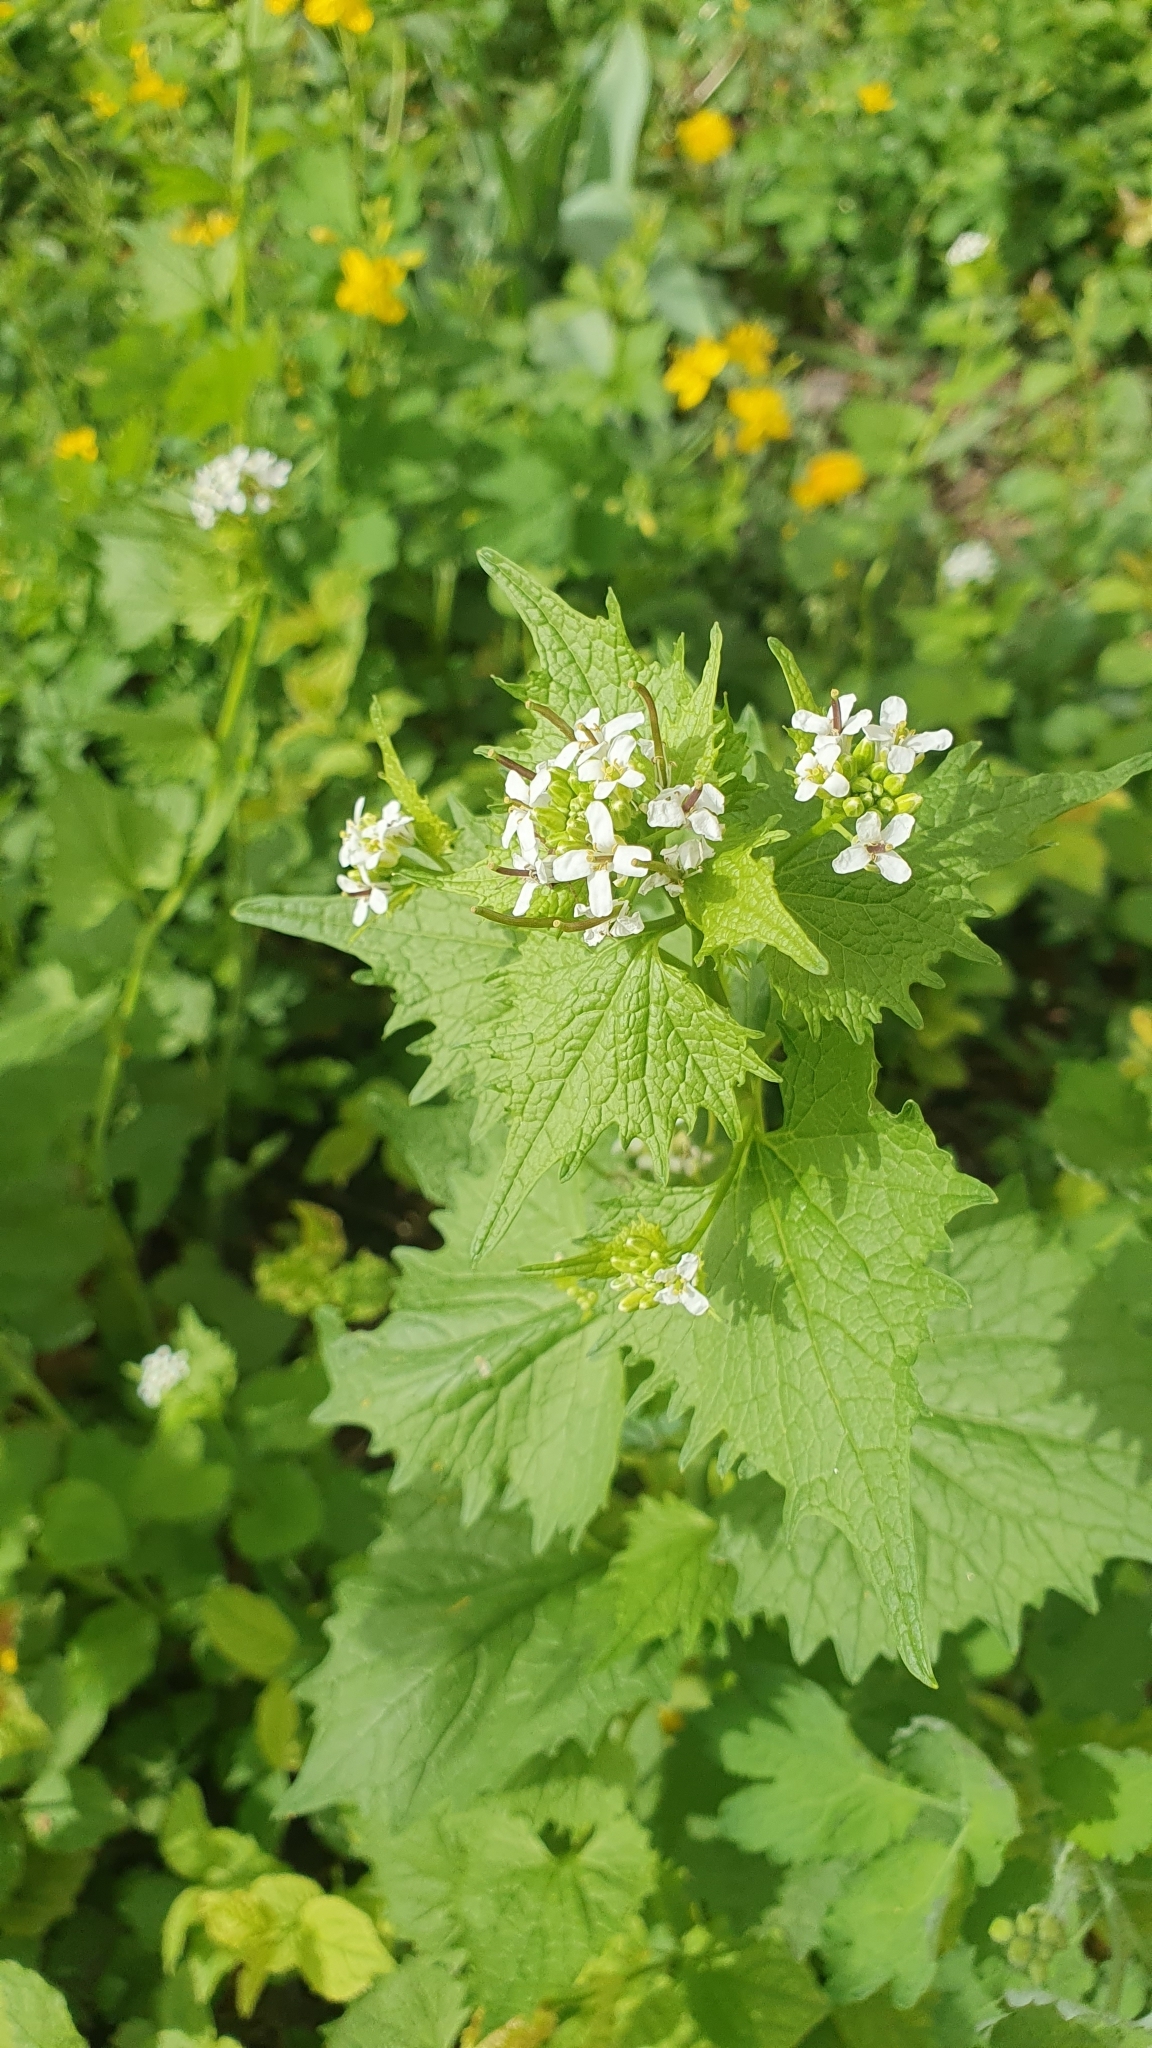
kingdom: Plantae
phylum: Tracheophyta
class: Magnoliopsida
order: Brassicales
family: Brassicaceae
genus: Alliaria
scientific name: Alliaria petiolata
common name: Garlic mustard
